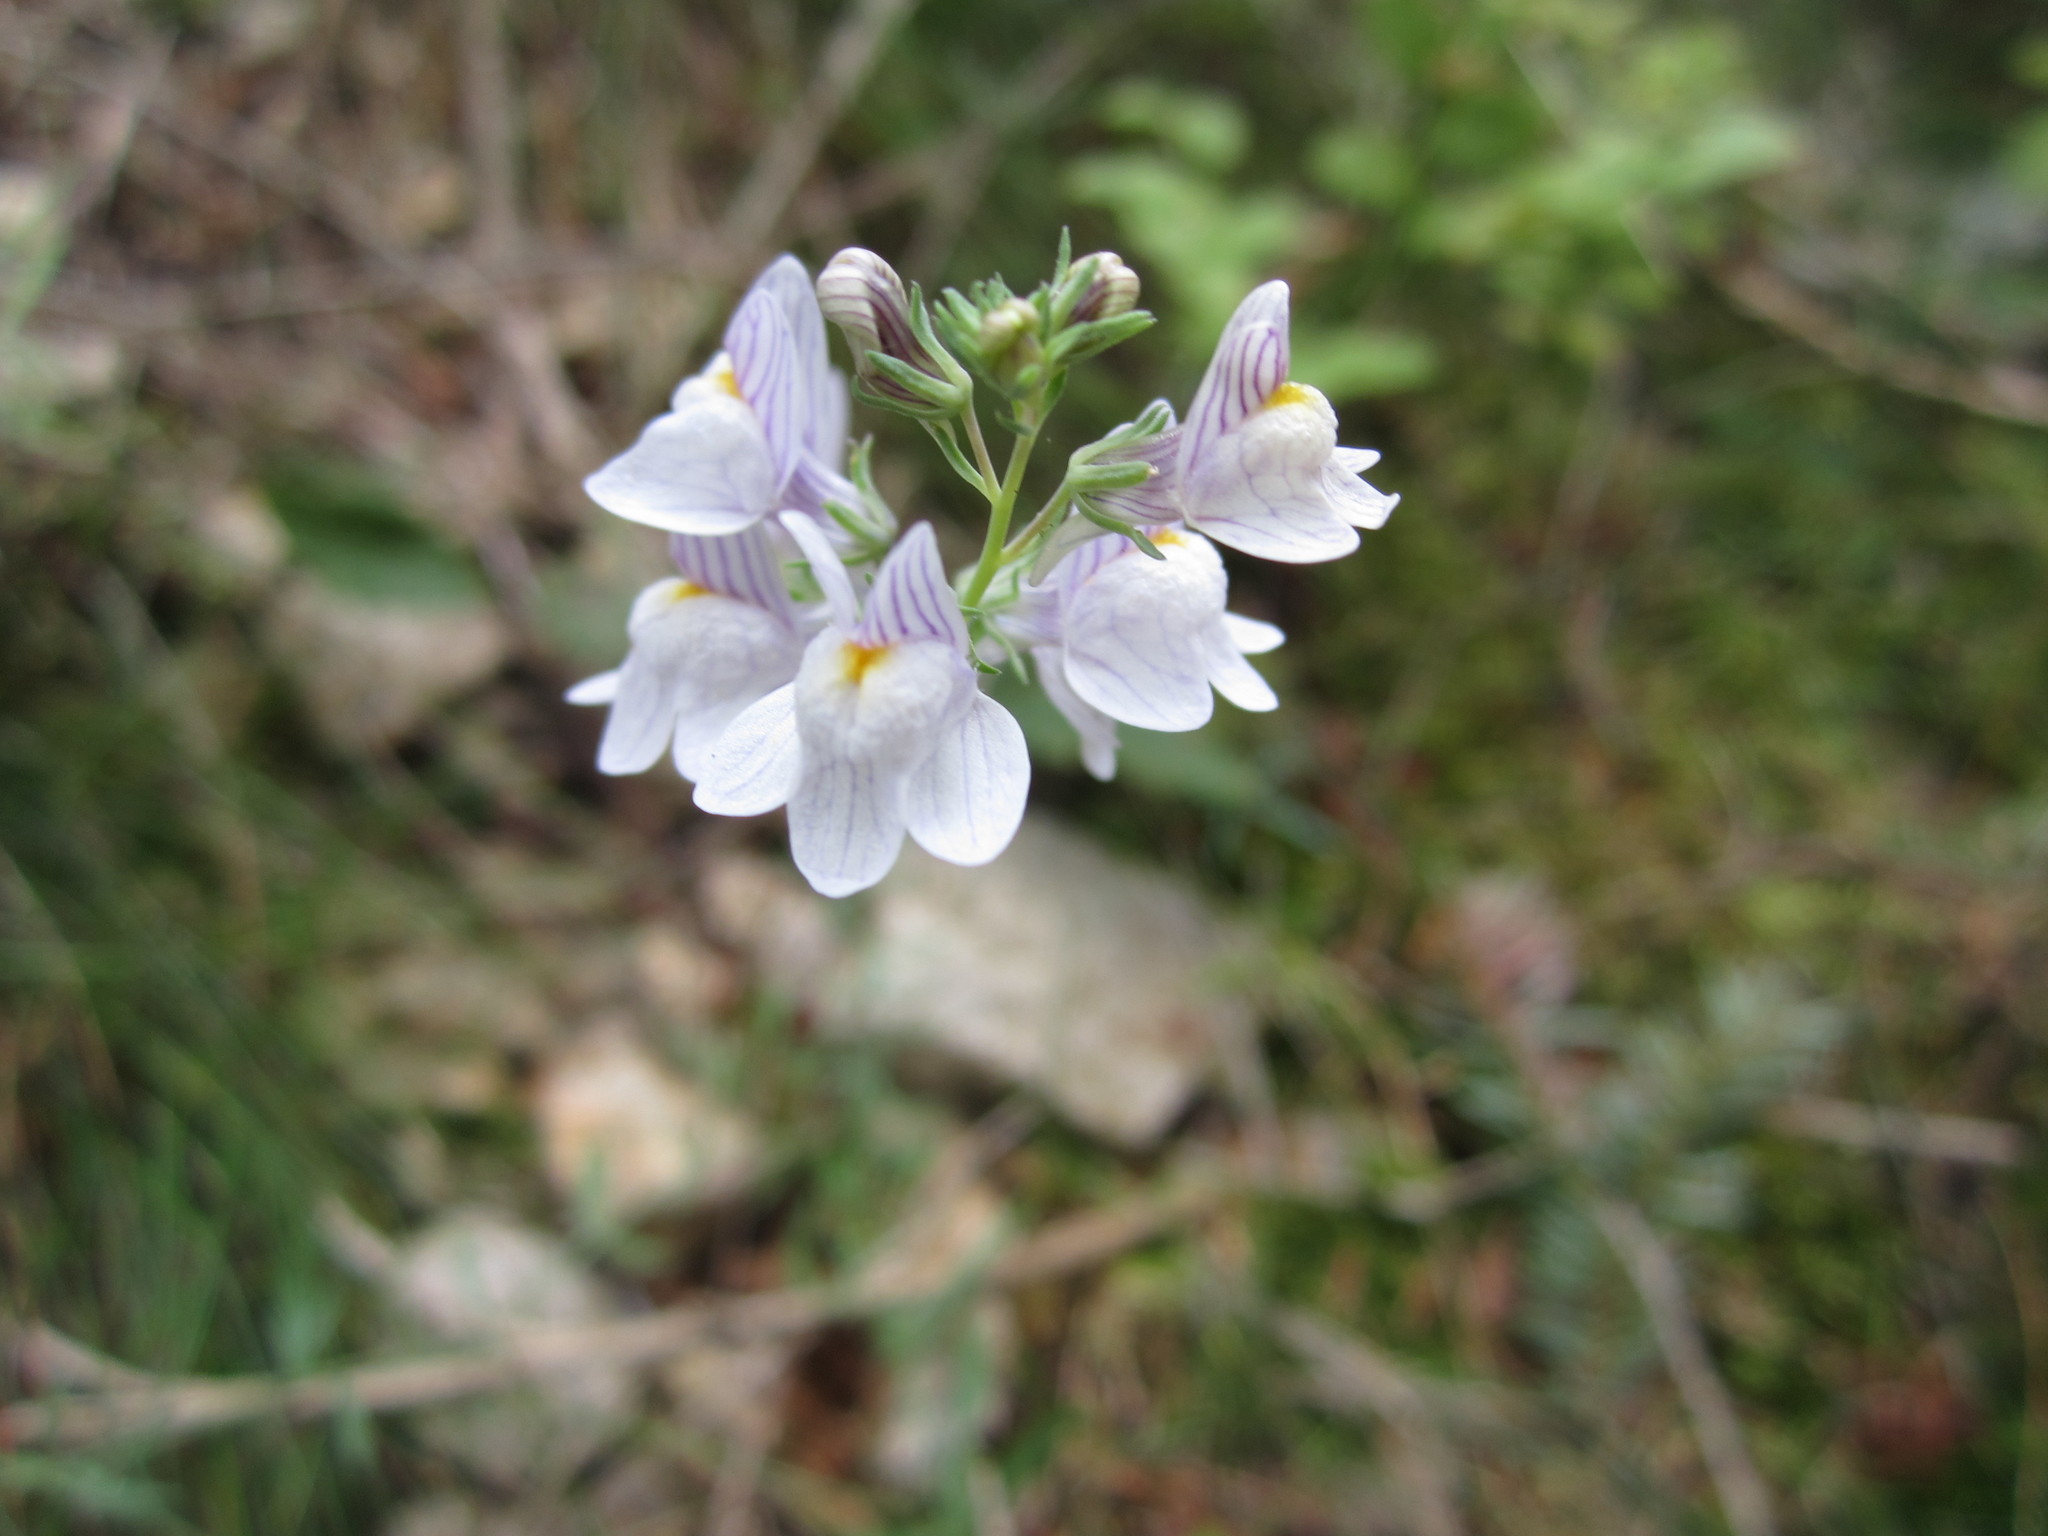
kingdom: Plantae
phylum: Tracheophyta
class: Magnoliopsida
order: Lamiales
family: Plantaginaceae
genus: Linaria
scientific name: Linaria repens
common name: Pale toadflax
